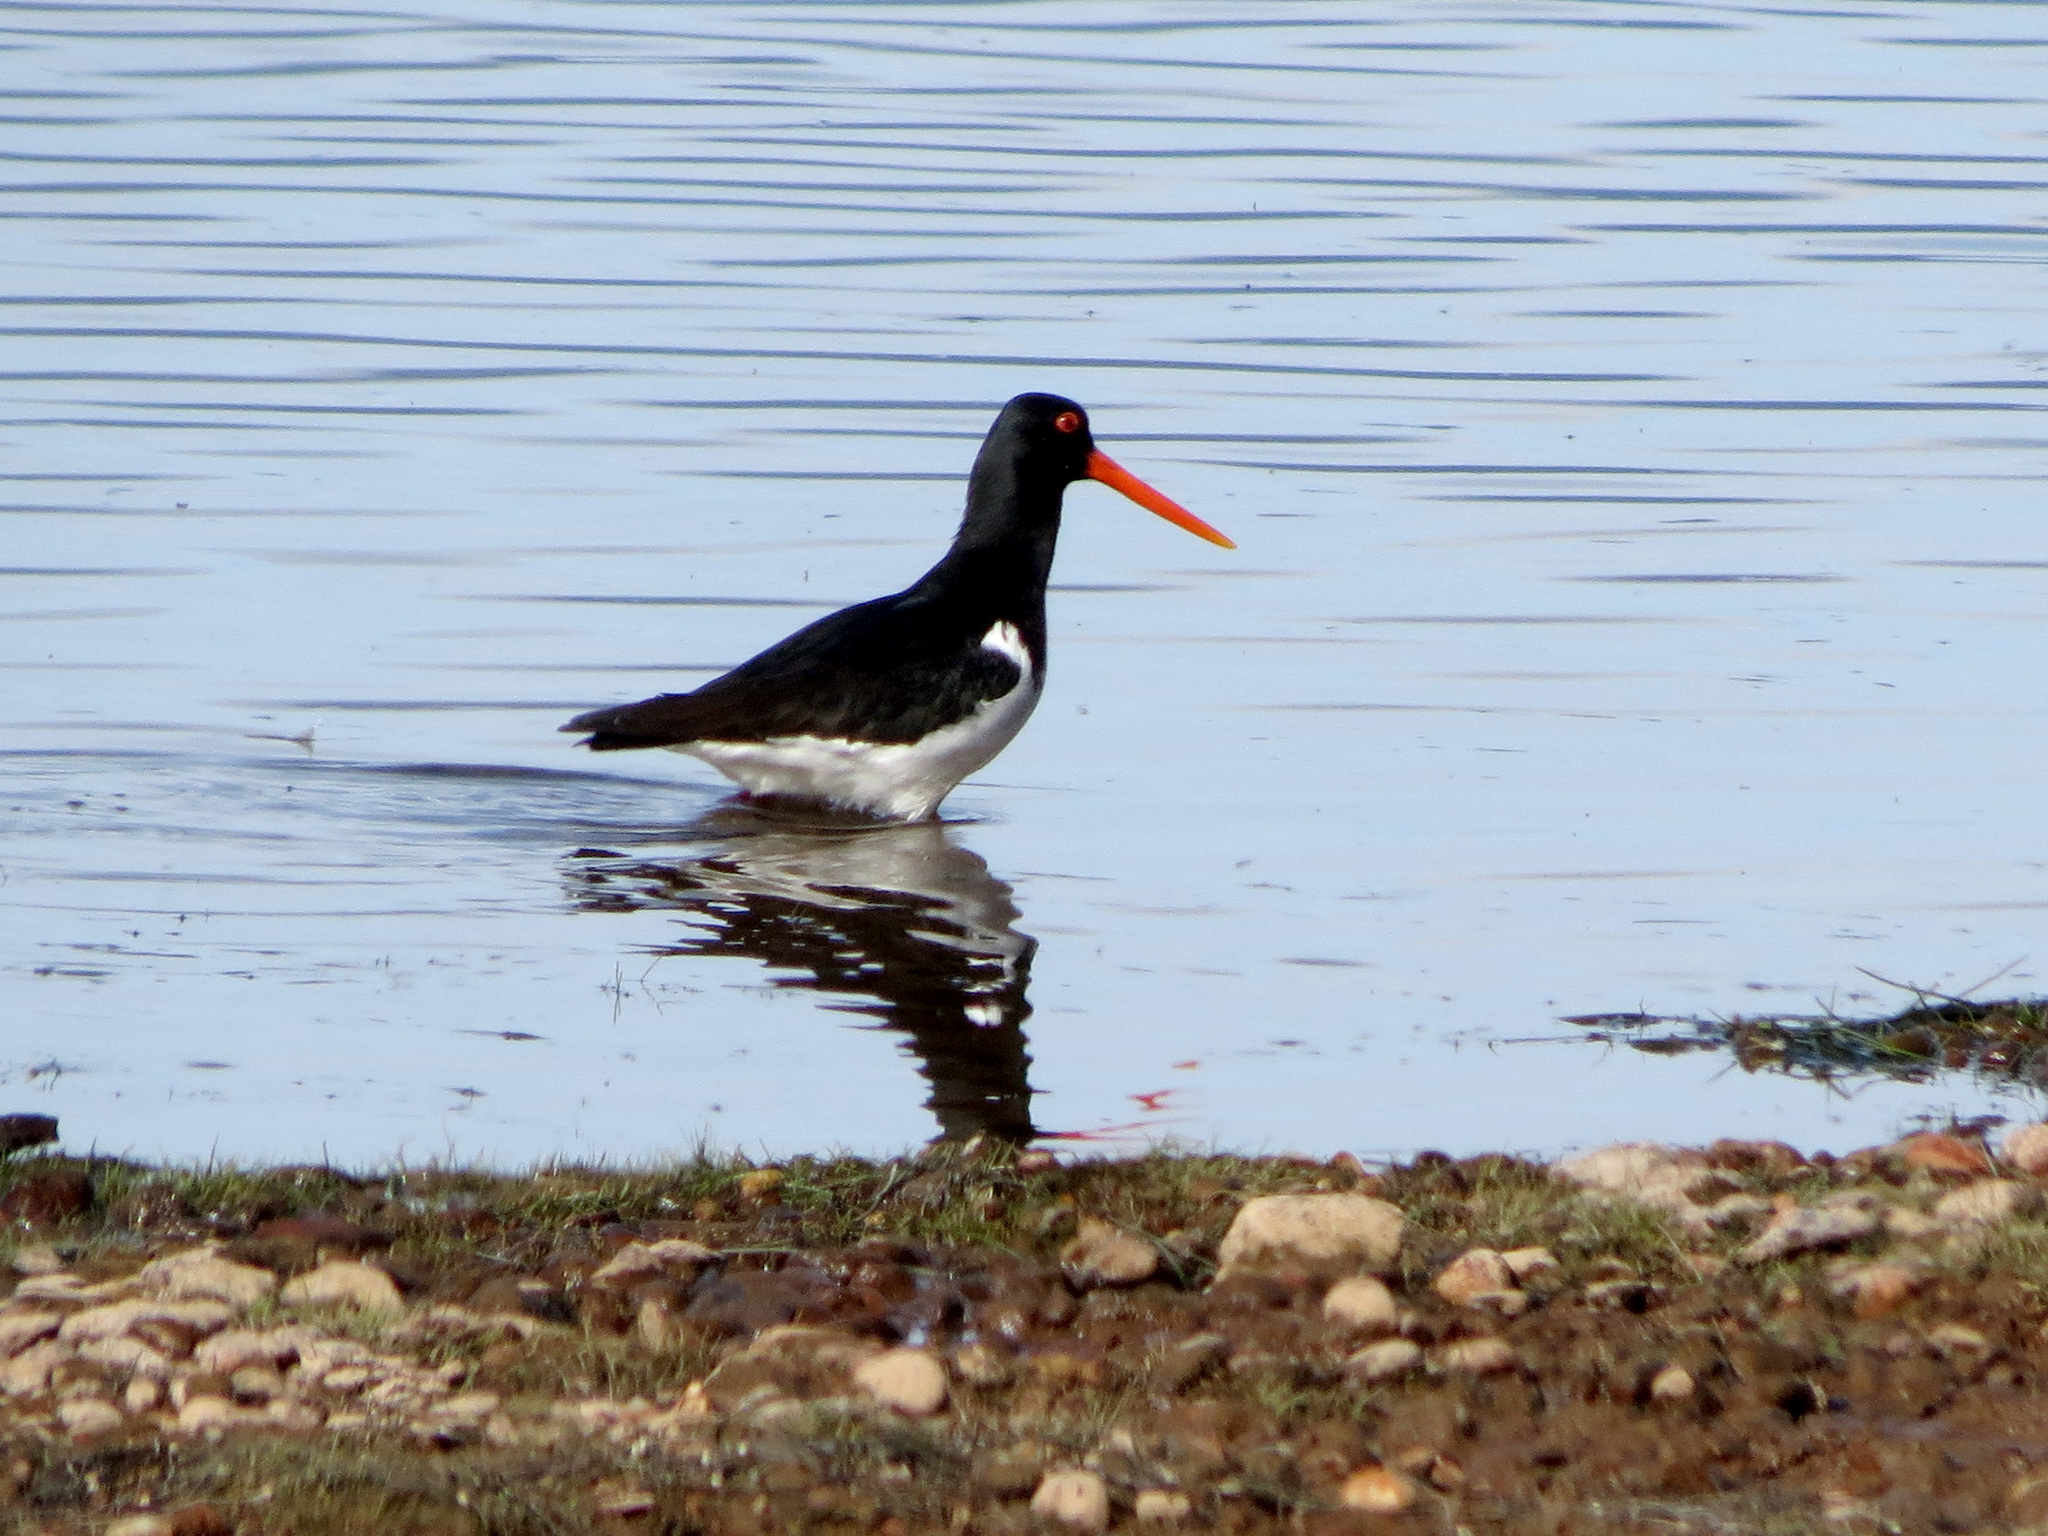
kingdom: Animalia
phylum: Chordata
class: Aves
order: Charadriiformes
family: Haematopodidae
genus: Haematopus
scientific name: Haematopus finschi
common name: South island oystercatcher
